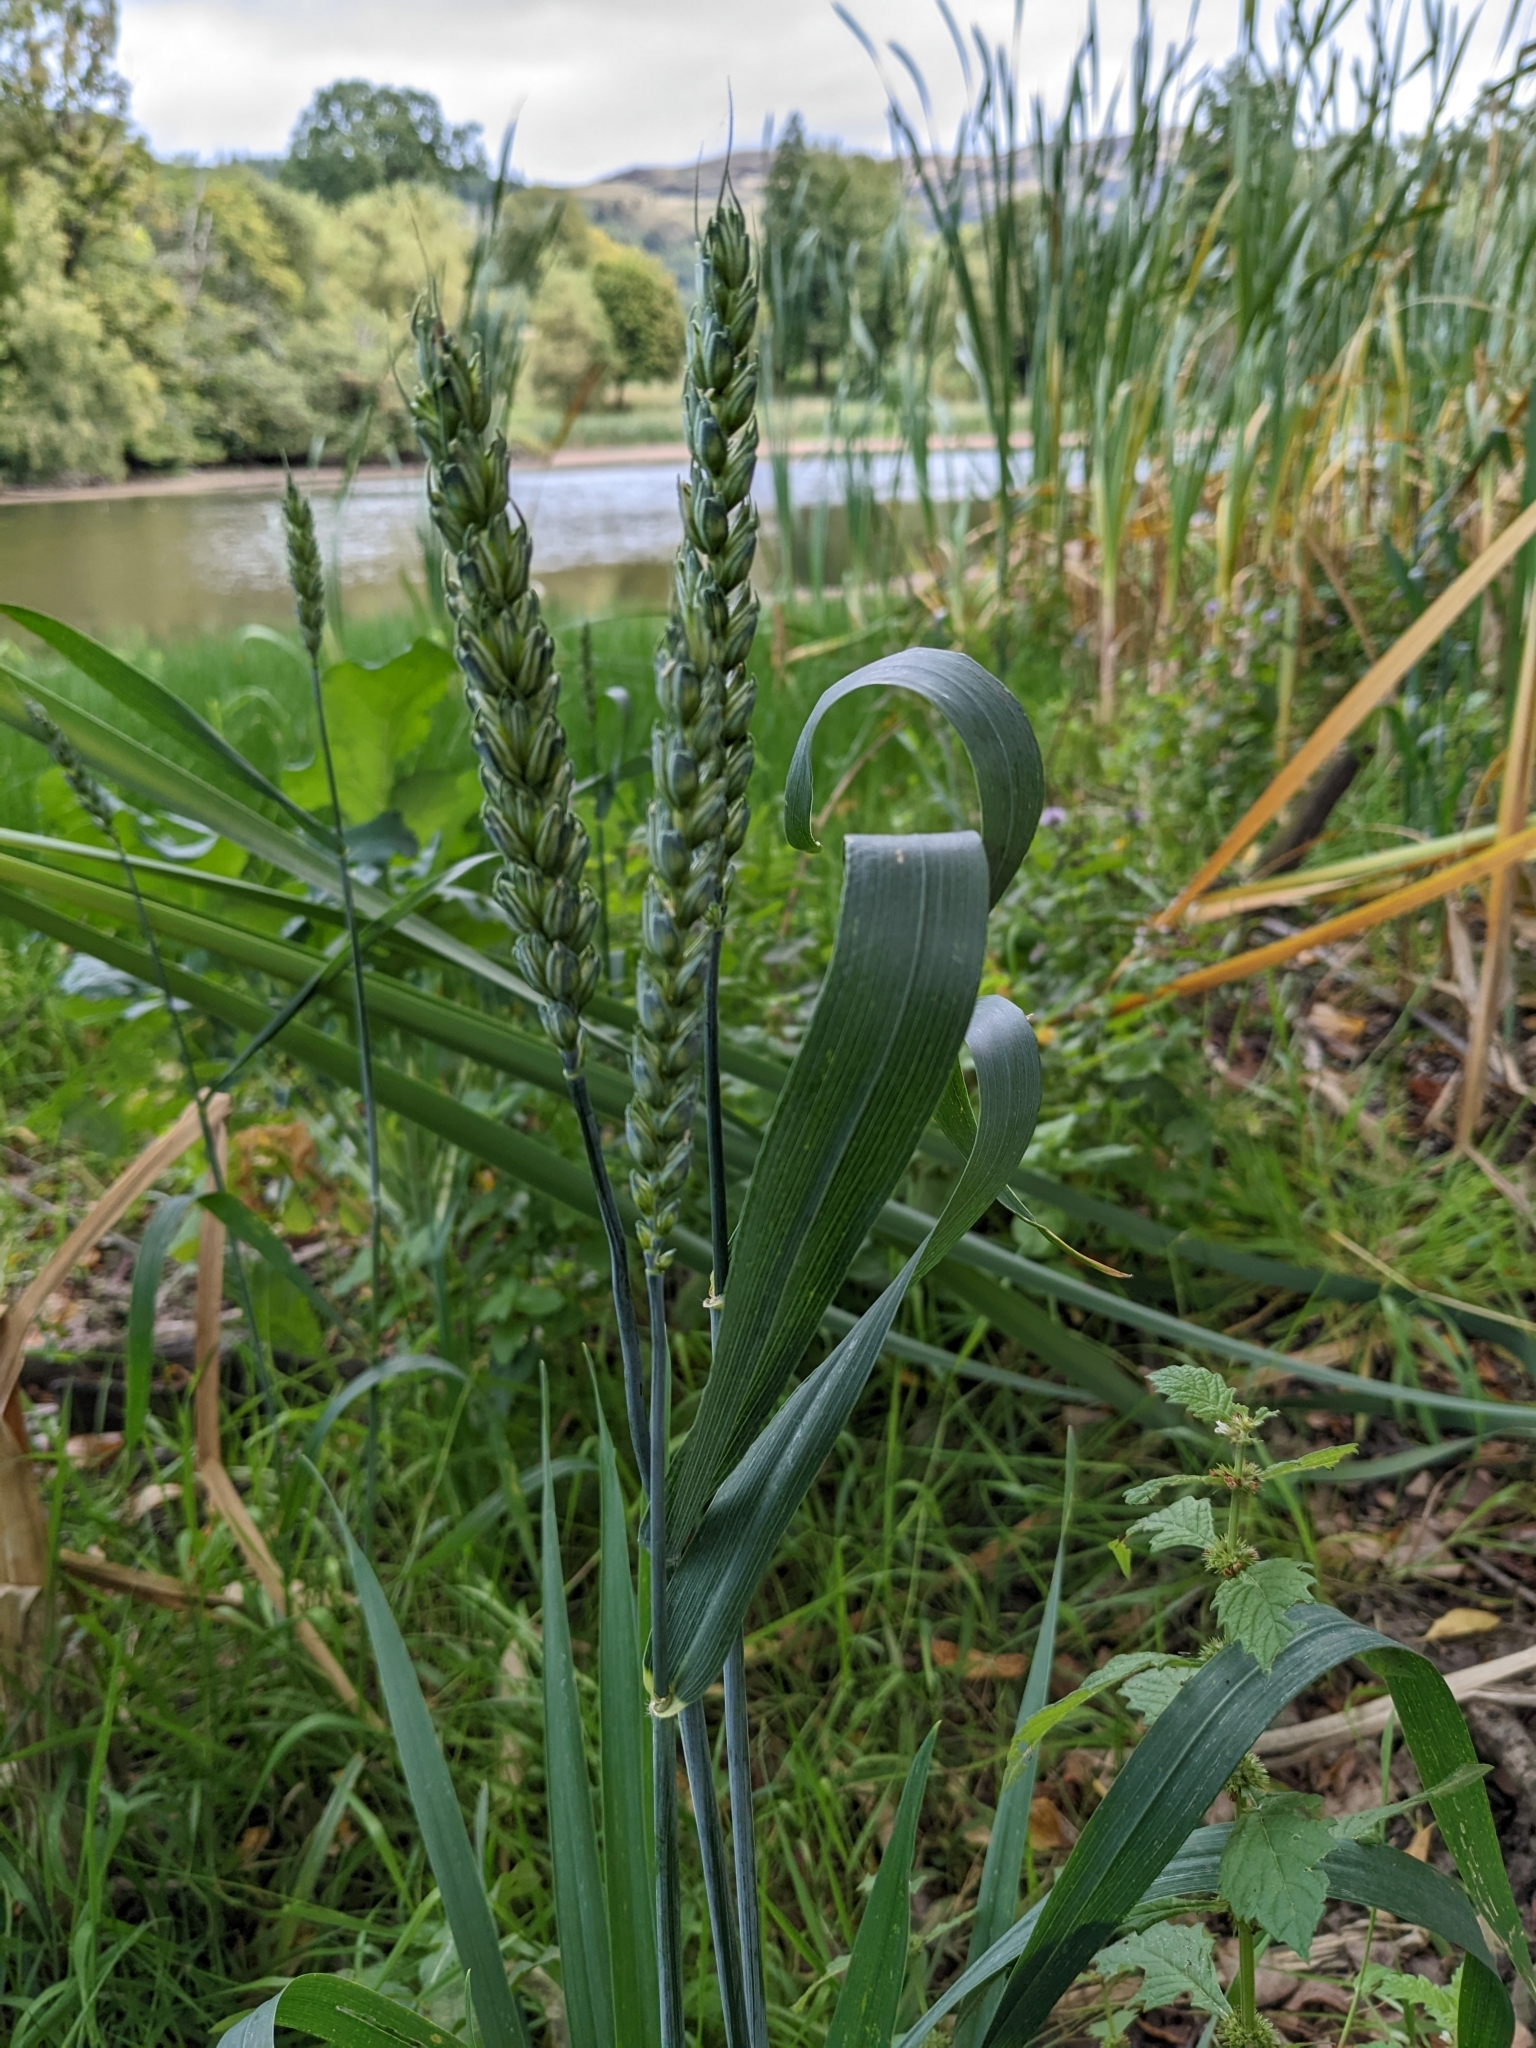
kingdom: Plantae
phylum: Tracheophyta
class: Liliopsida
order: Poales
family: Poaceae
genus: Triticum
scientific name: Triticum aestivum
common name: Common wheat
